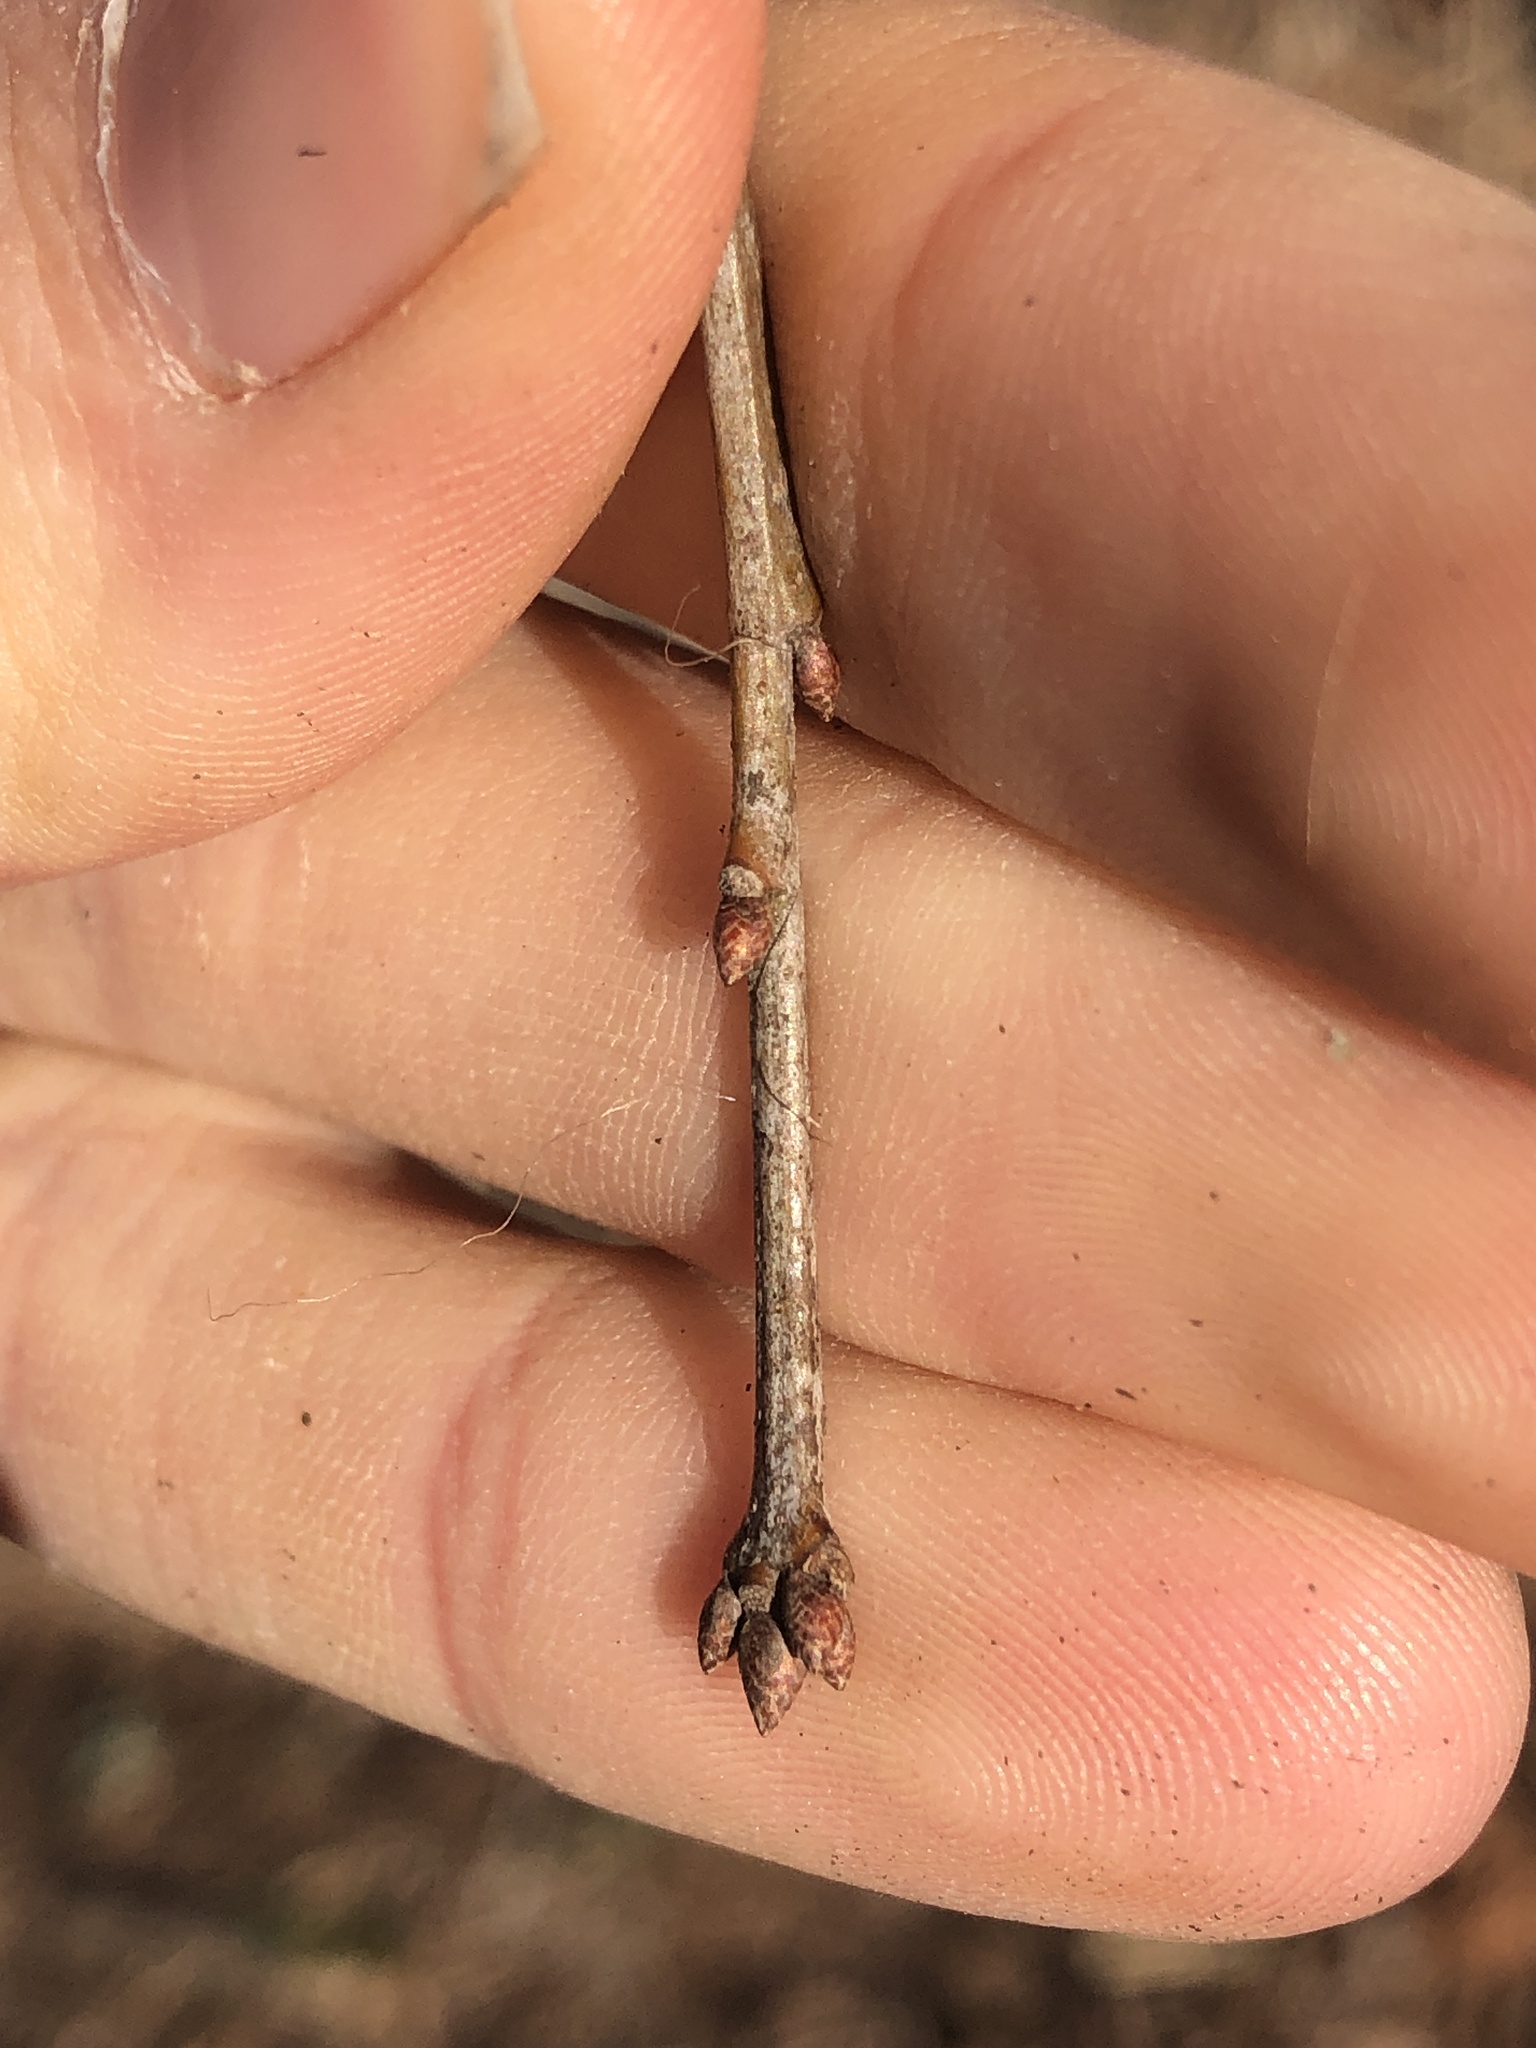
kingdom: Plantae
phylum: Tracheophyta
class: Magnoliopsida
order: Fagales
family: Fagaceae
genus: Quercus
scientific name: Quercus phellos
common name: Willow oak
